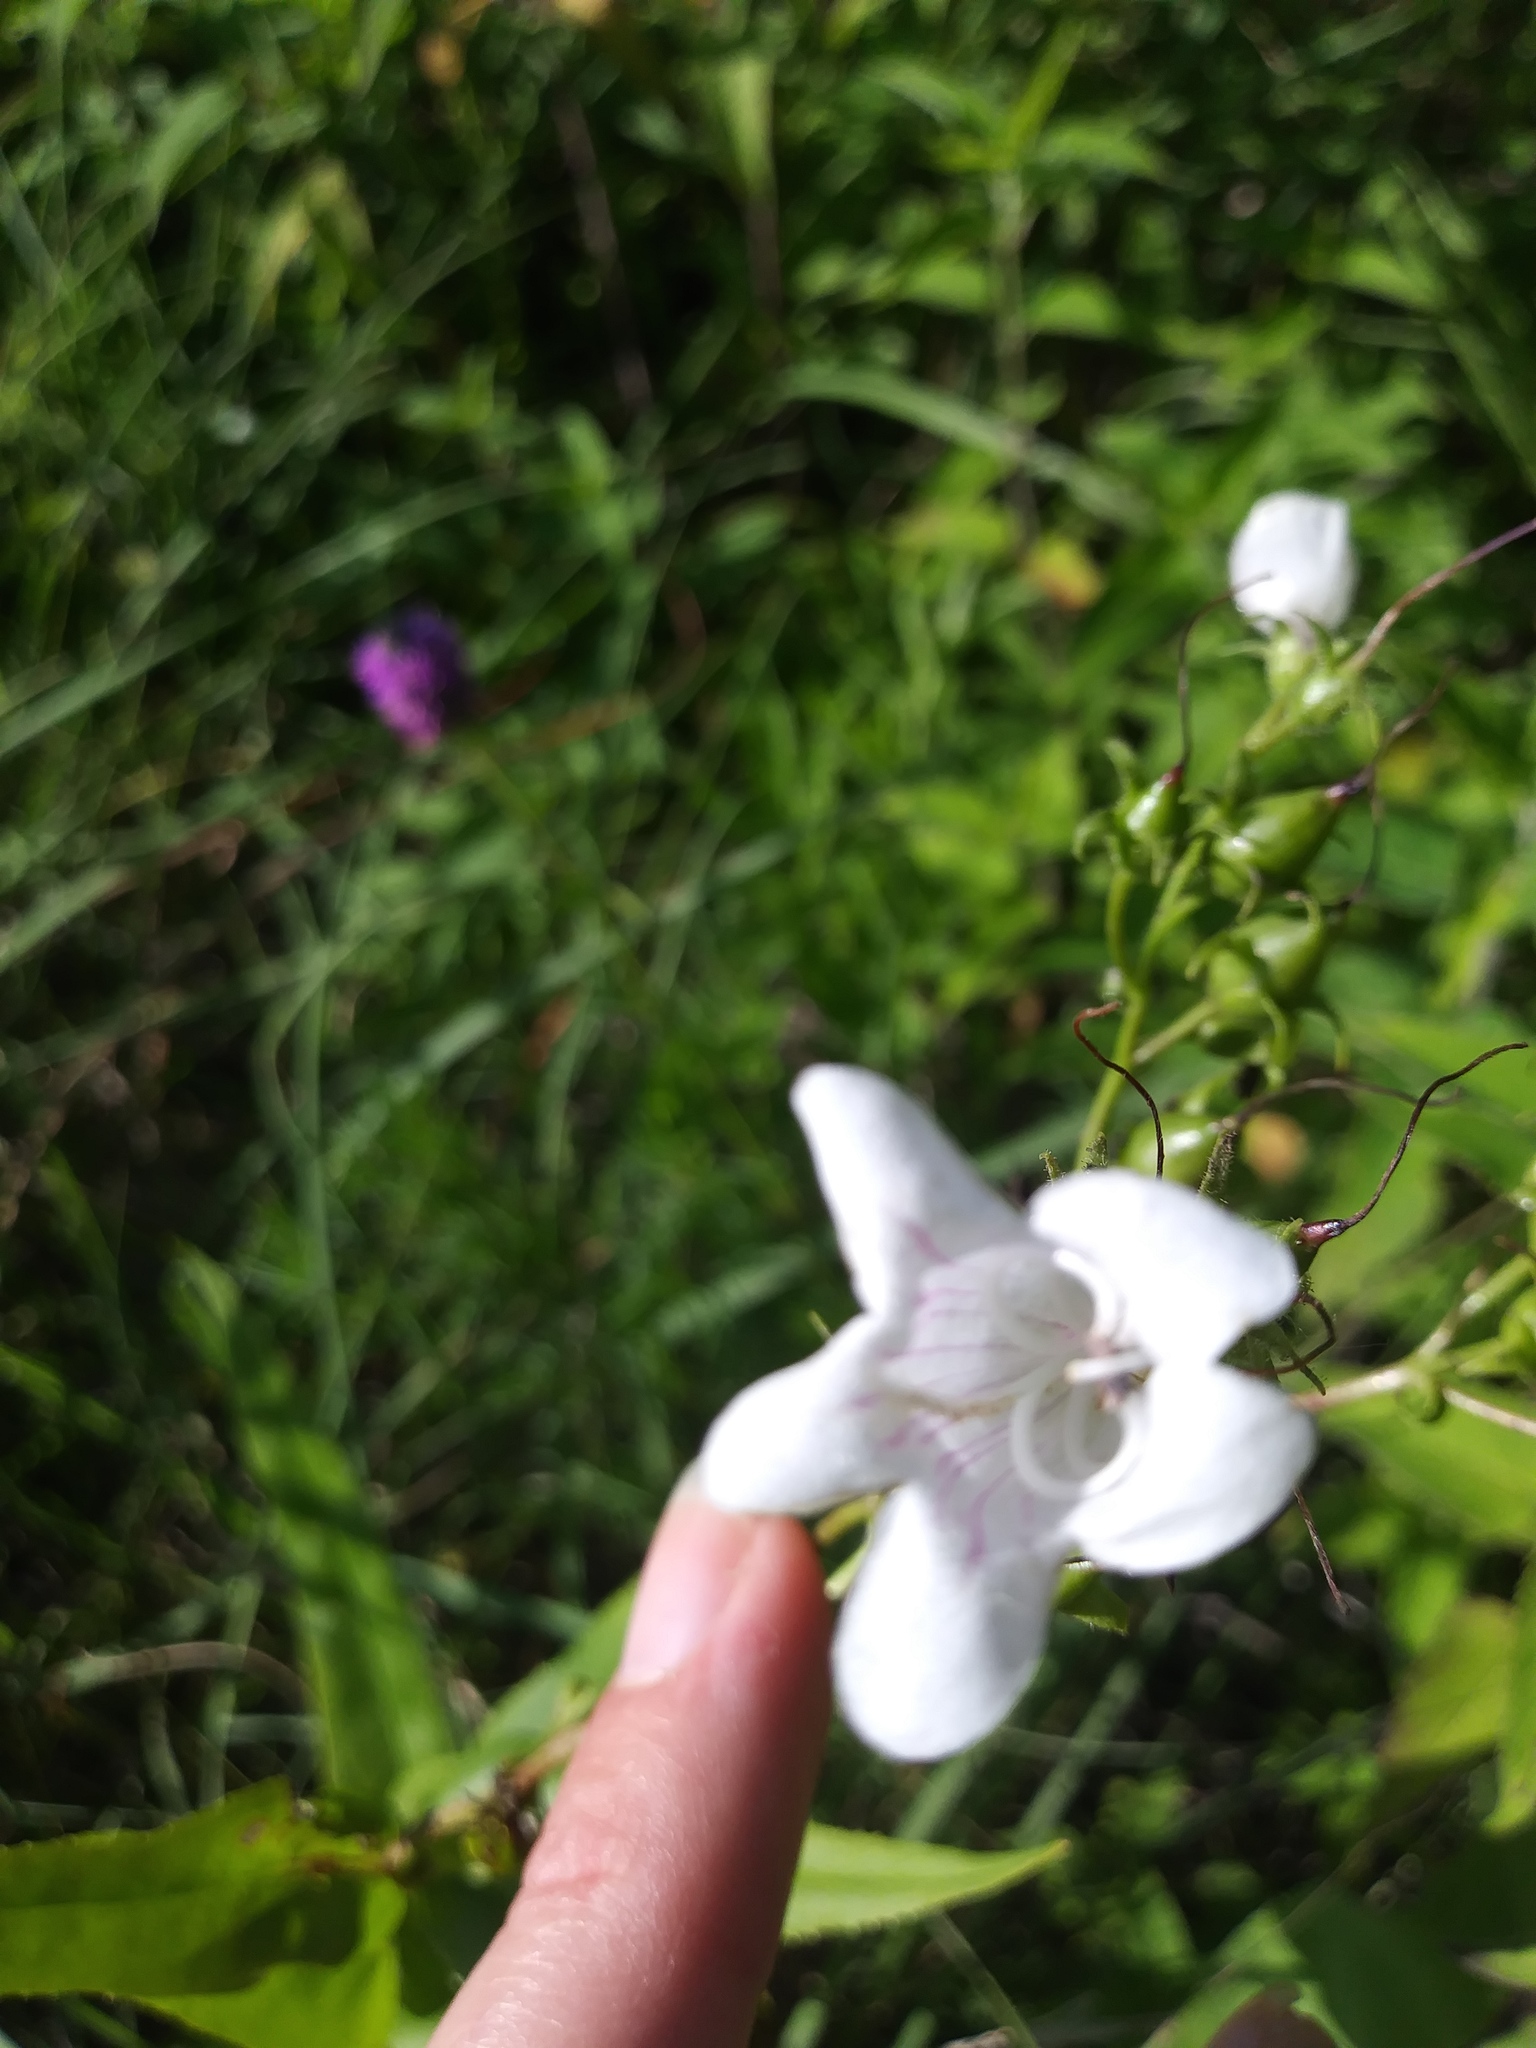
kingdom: Plantae
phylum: Tracheophyta
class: Magnoliopsida
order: Lamiales
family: Plantaginaceae
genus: Penstemon
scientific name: Penstemon digitalis
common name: Foxglove beardtongue
